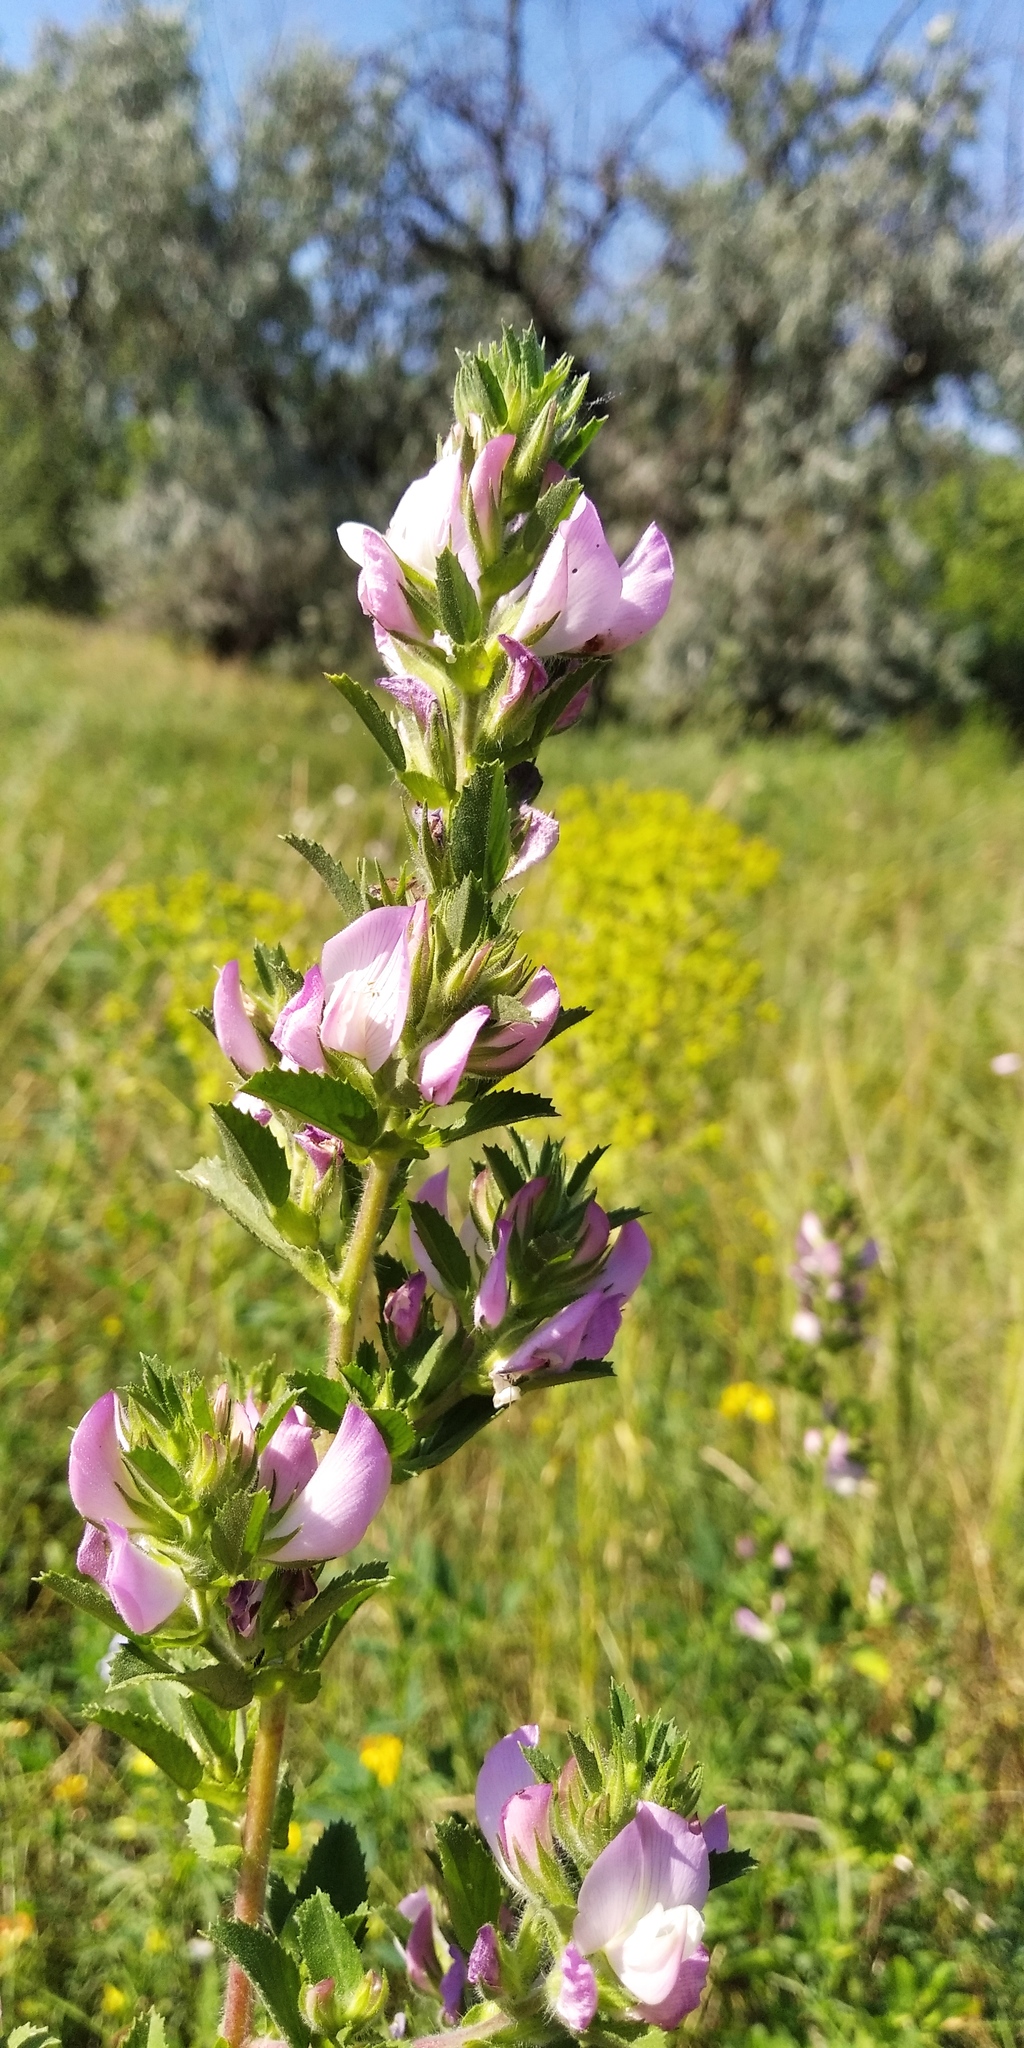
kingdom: Plantae
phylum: Tracheophyta
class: Magnoliopsida
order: Fabales
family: Fabaceae
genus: Ononis
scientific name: Ononis arvensis
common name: Field restharrow
